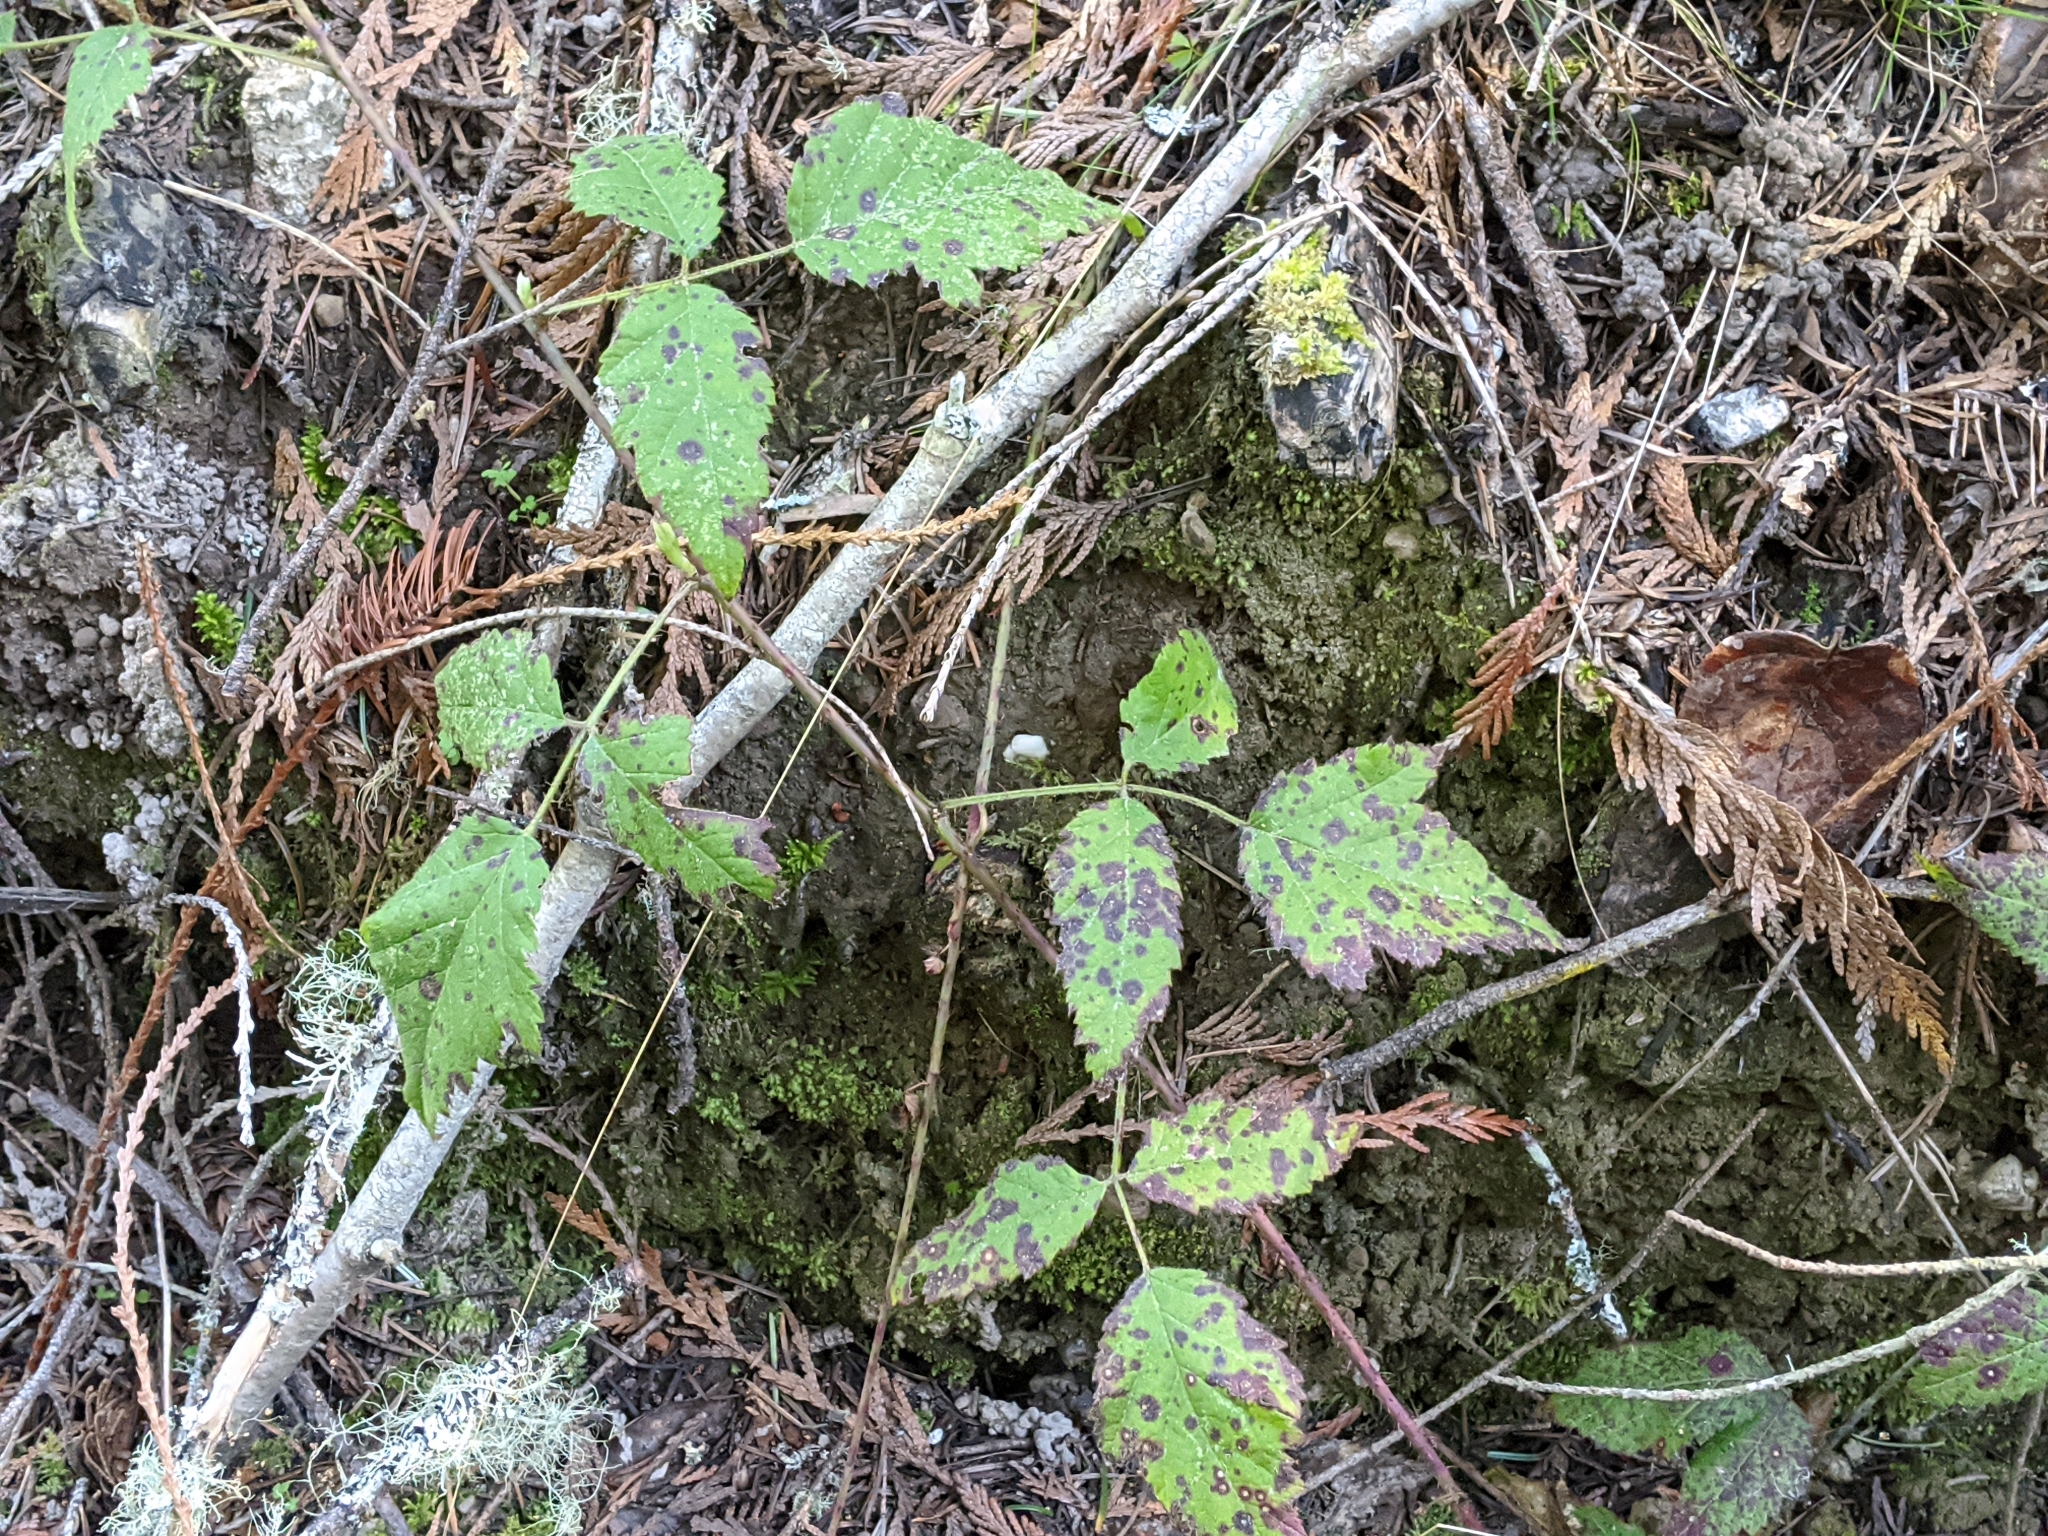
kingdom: Plantae
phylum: Tracheophyta
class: Magnoliopsida
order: Rosales
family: Rosaceae
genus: Rubus
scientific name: Rubus ursinus
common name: Pacific blackberry
